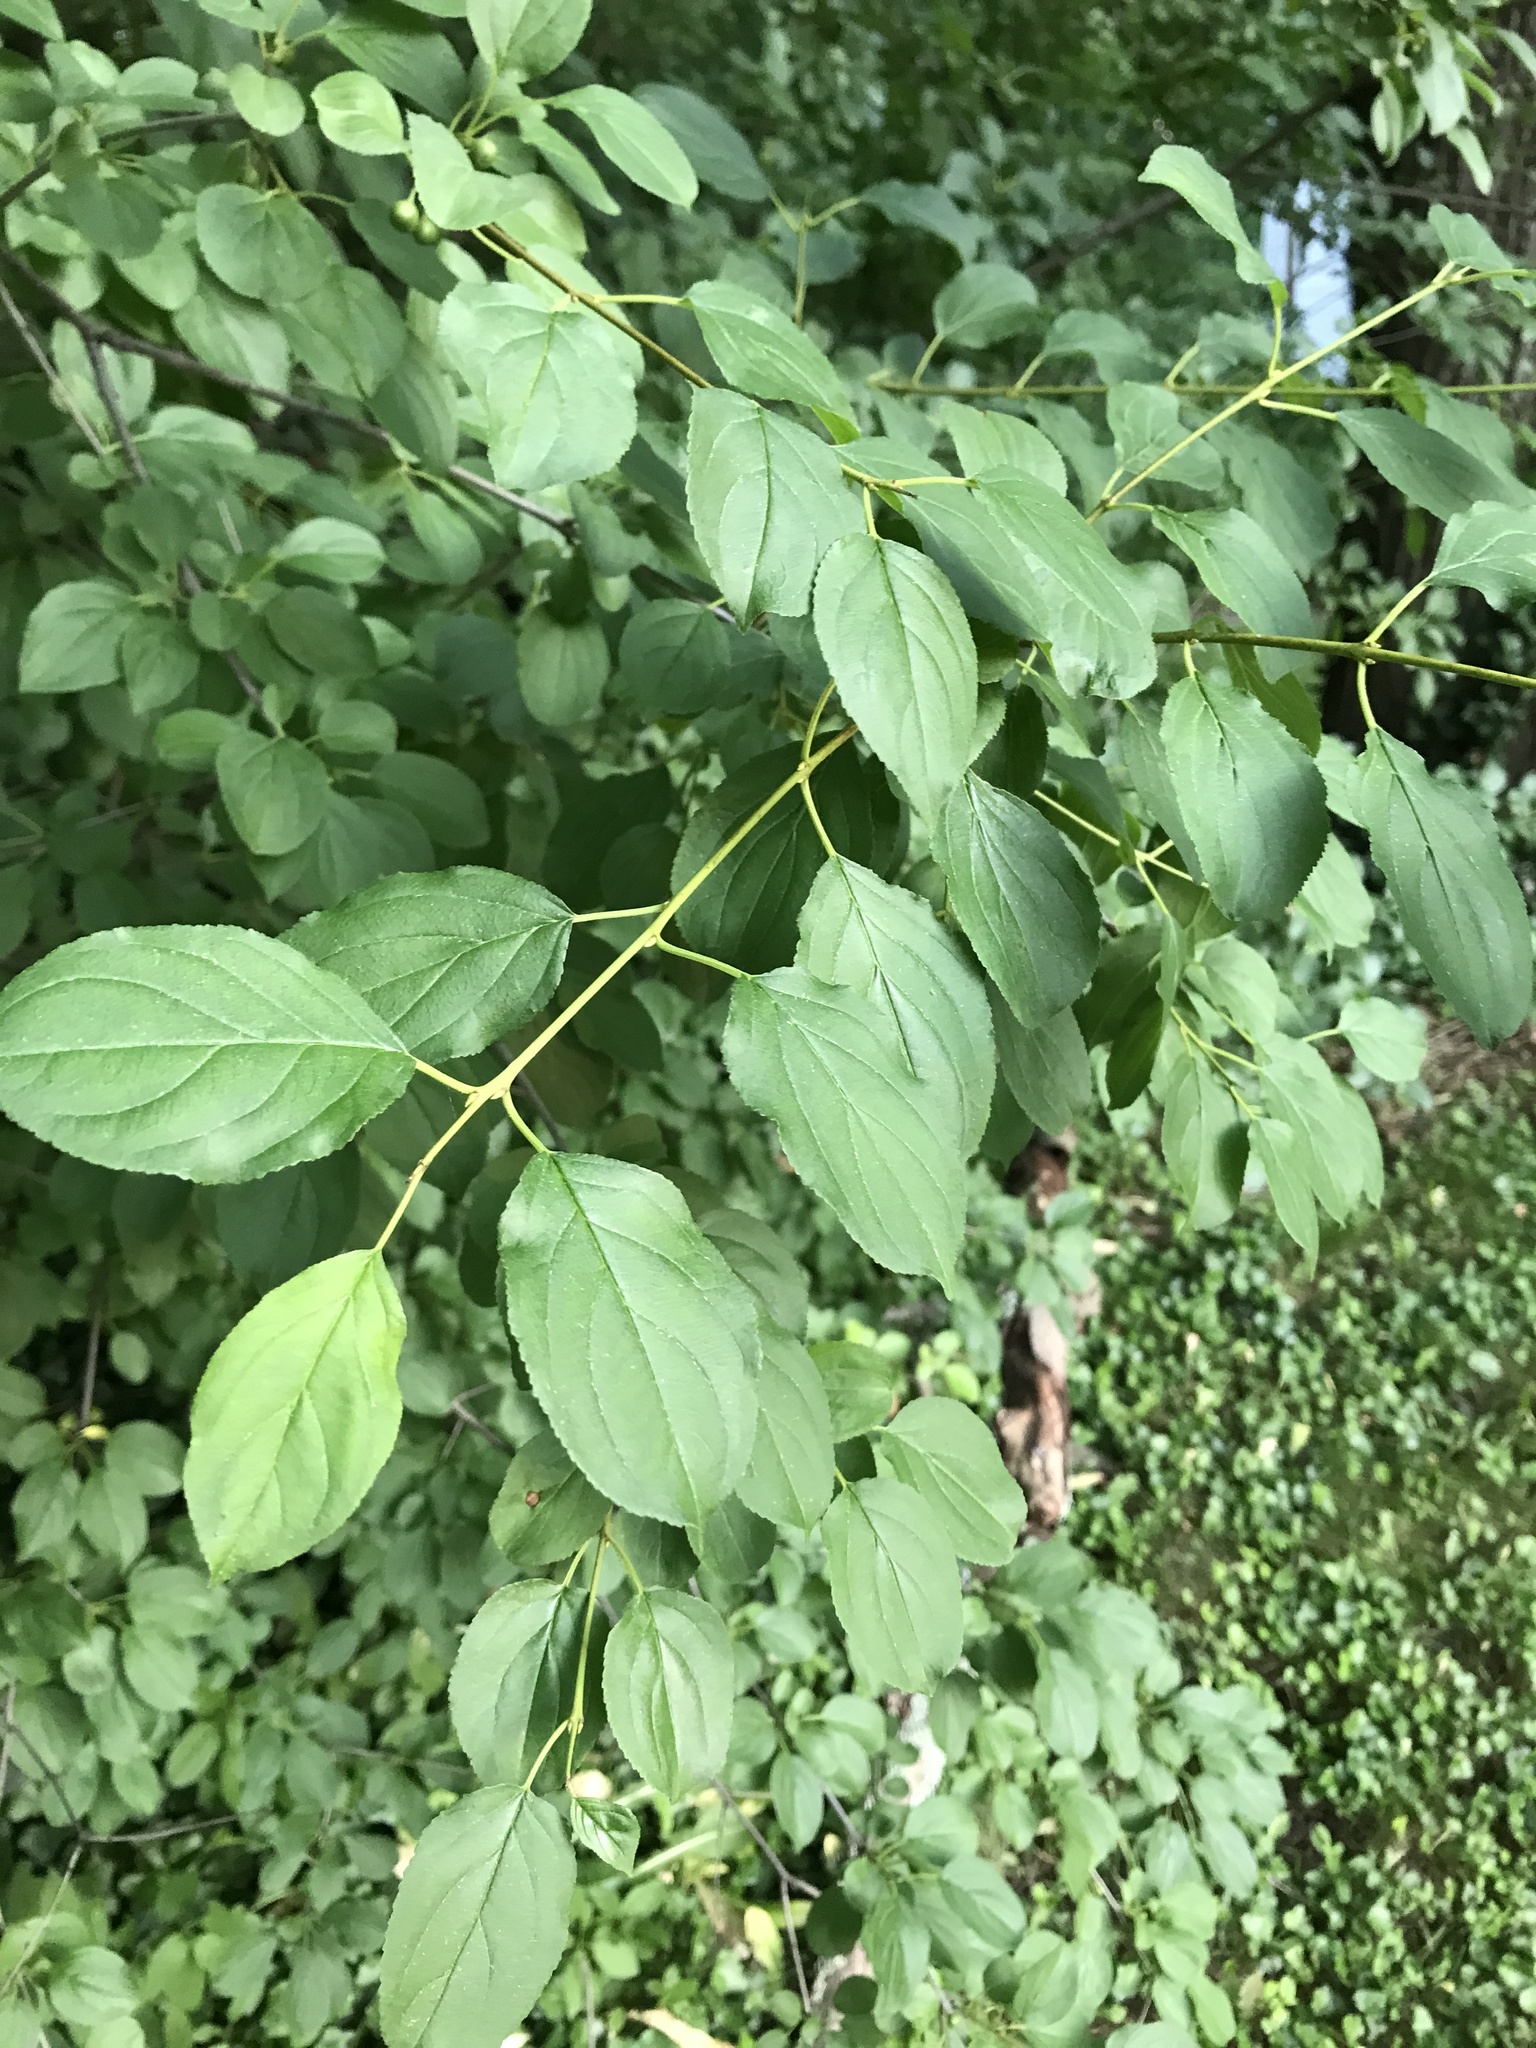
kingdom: Plantae
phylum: Tracheophyta
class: Magnoliopsida
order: Rosales
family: Rhamnaceae
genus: Rhamnus
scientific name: Rhamnus cathartica
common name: Common buckthorn
